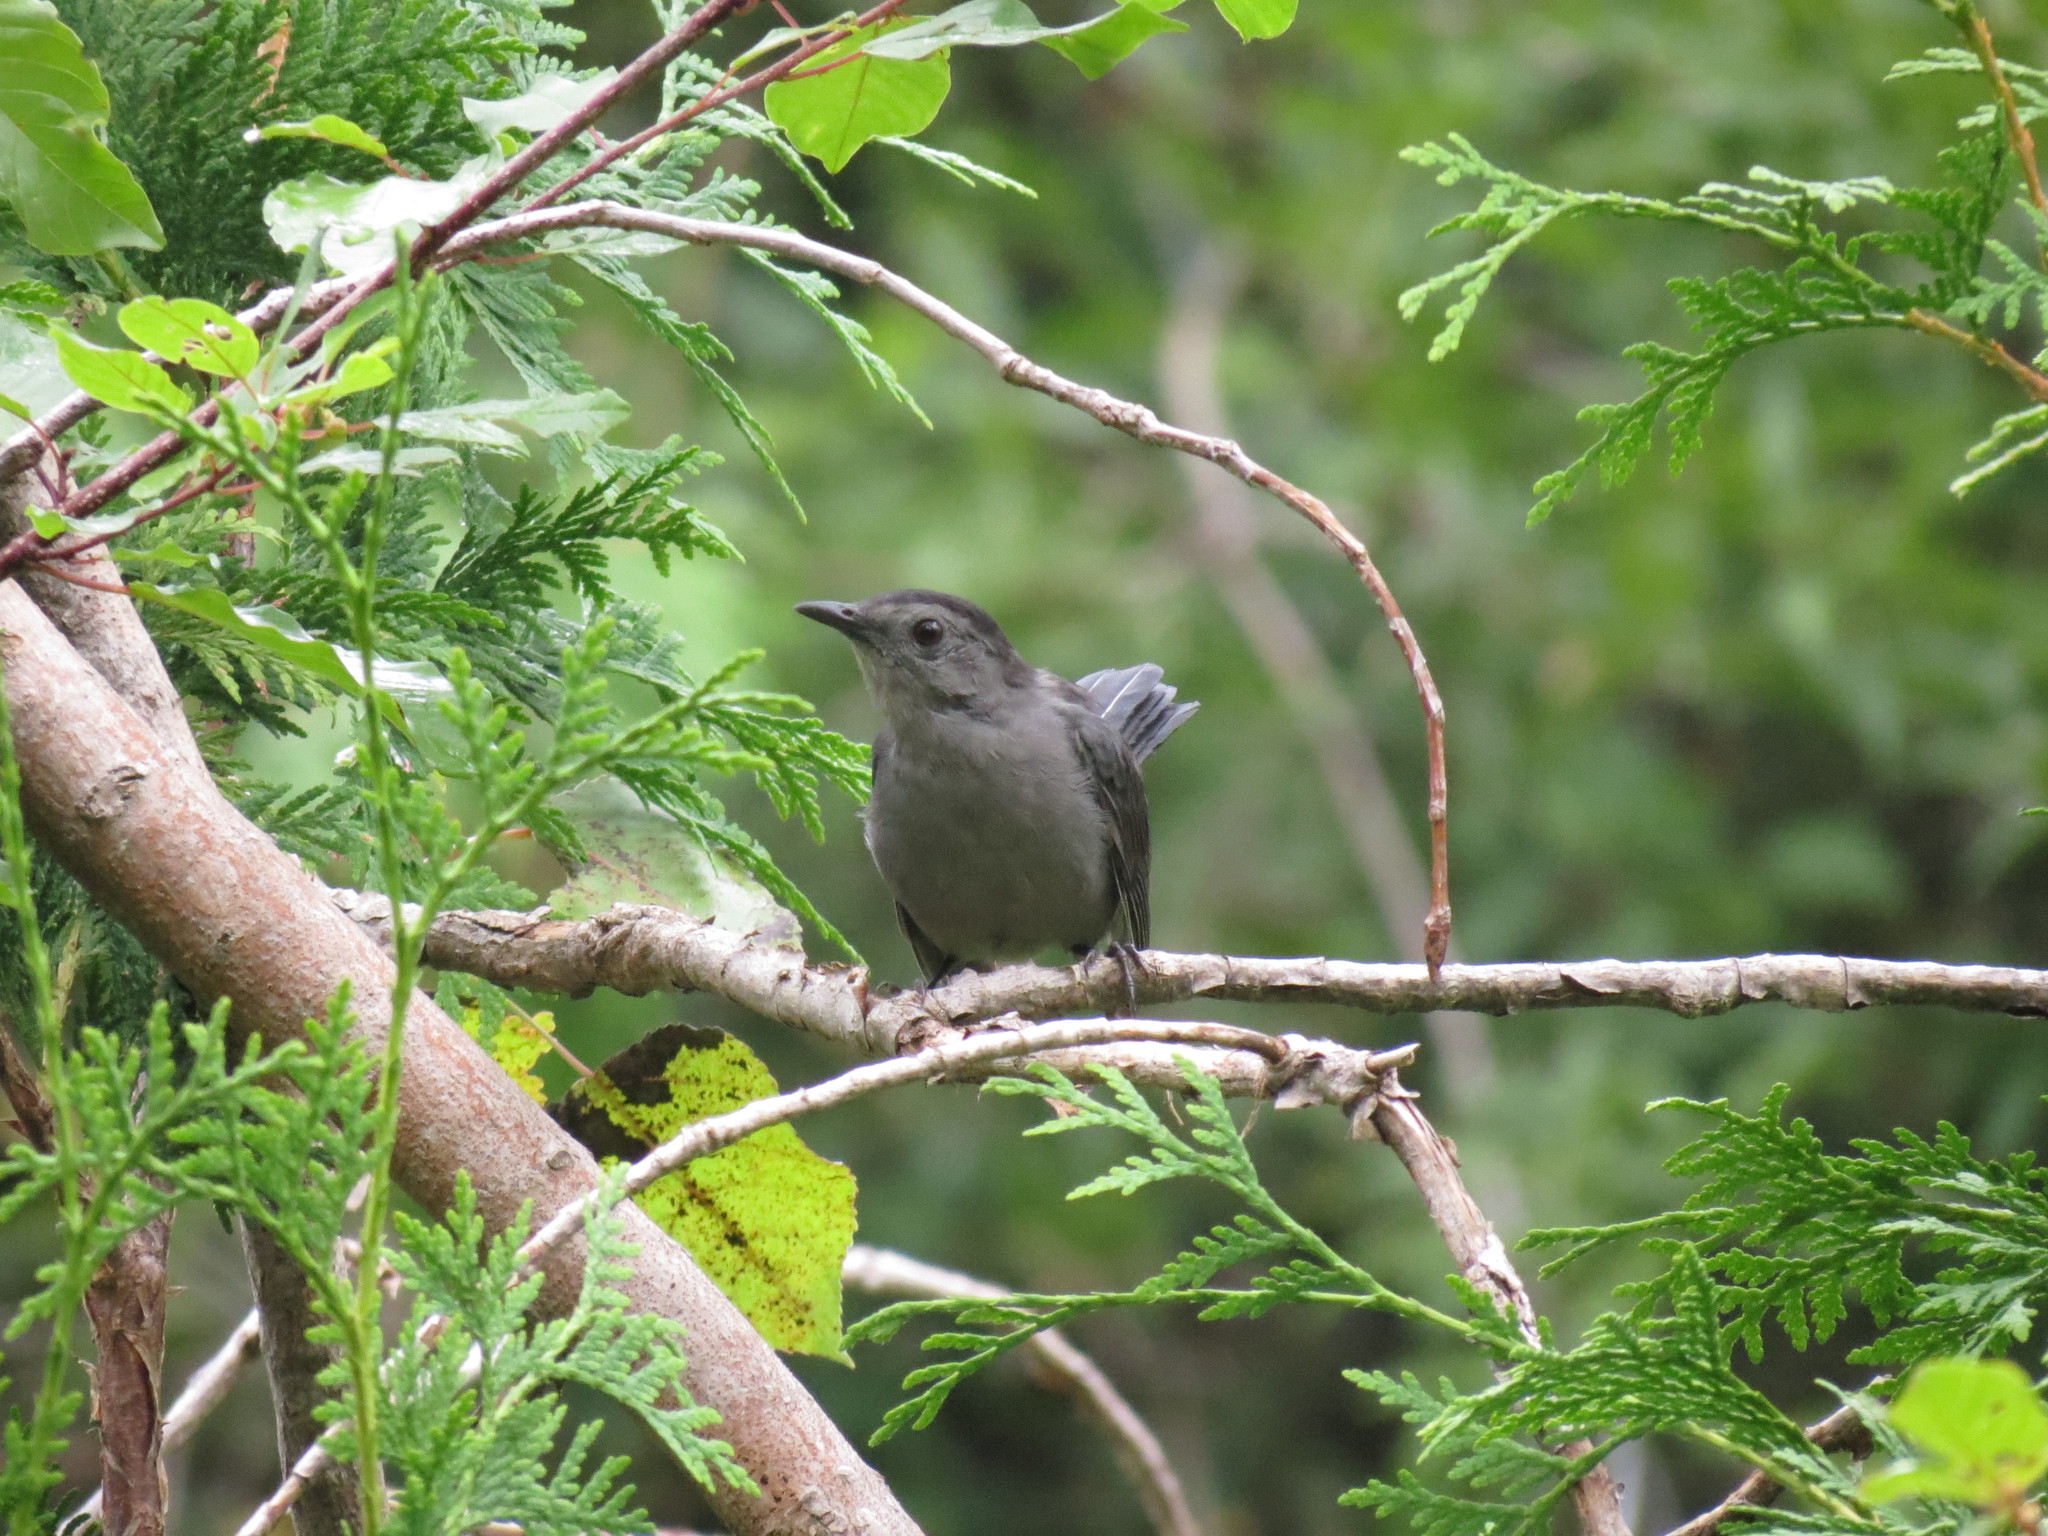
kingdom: Animalia
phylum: Chordata
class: Aves
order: Passeriformes
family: Mimidae
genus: Dumetella
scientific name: Dumetella carolinensis
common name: Gray catbird
